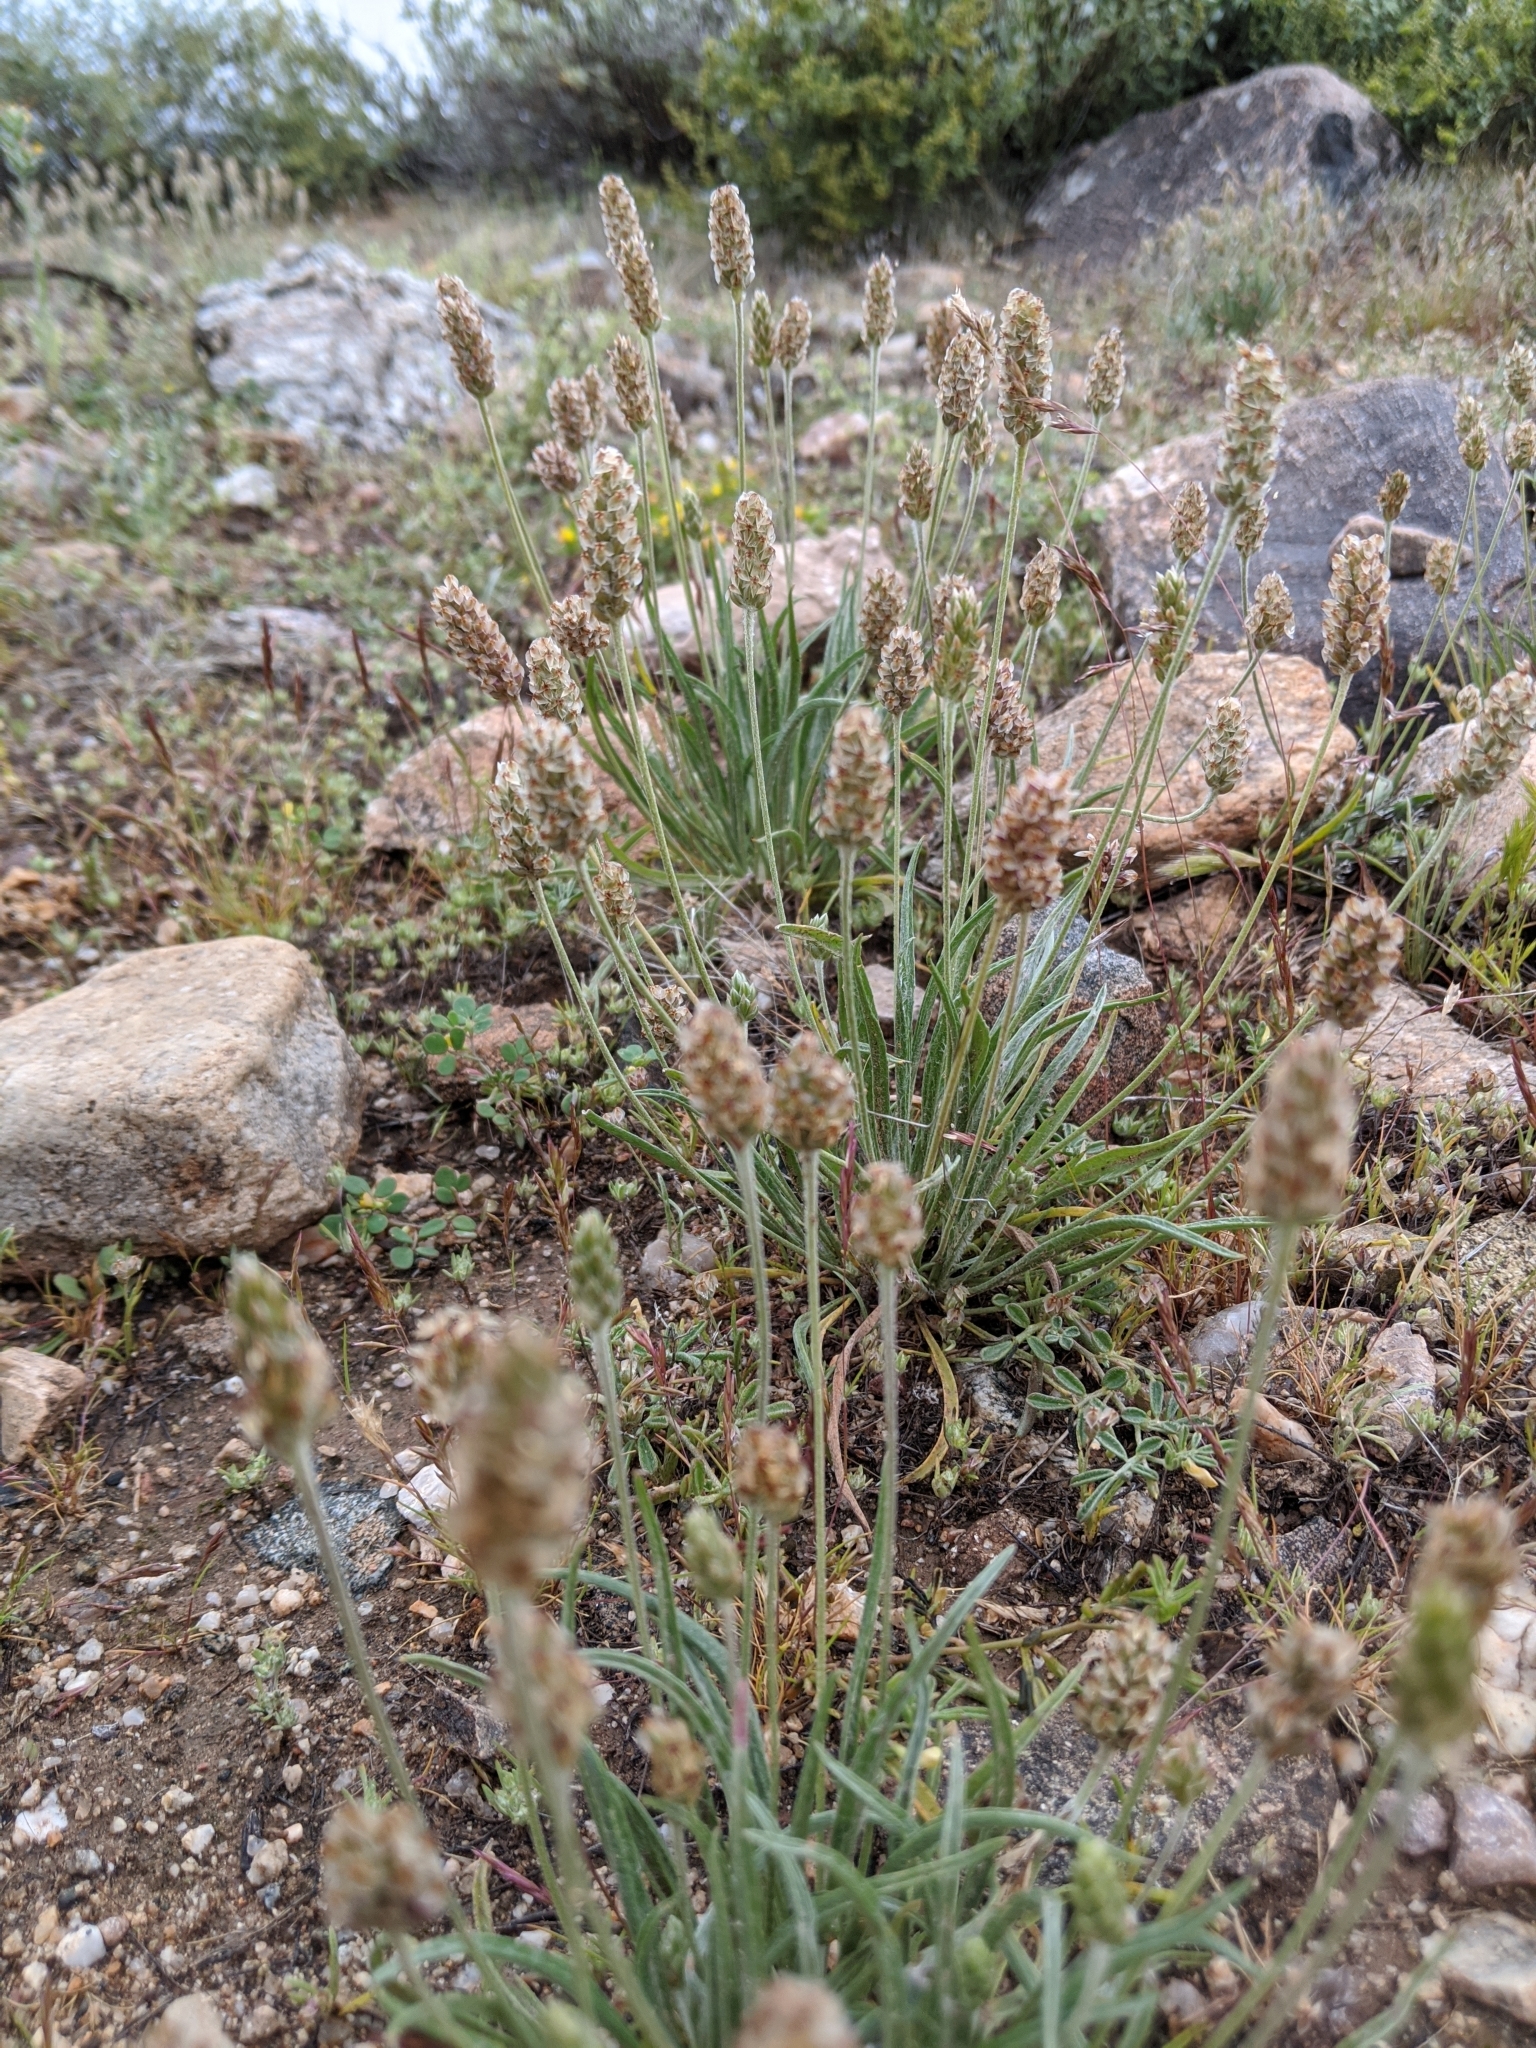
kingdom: Plantae
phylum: Tracheophyta
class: Magnoliopsida
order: Lamiales
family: Plantaginaceae
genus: Plantago
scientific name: Plantago ovata
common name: Blond plantain
